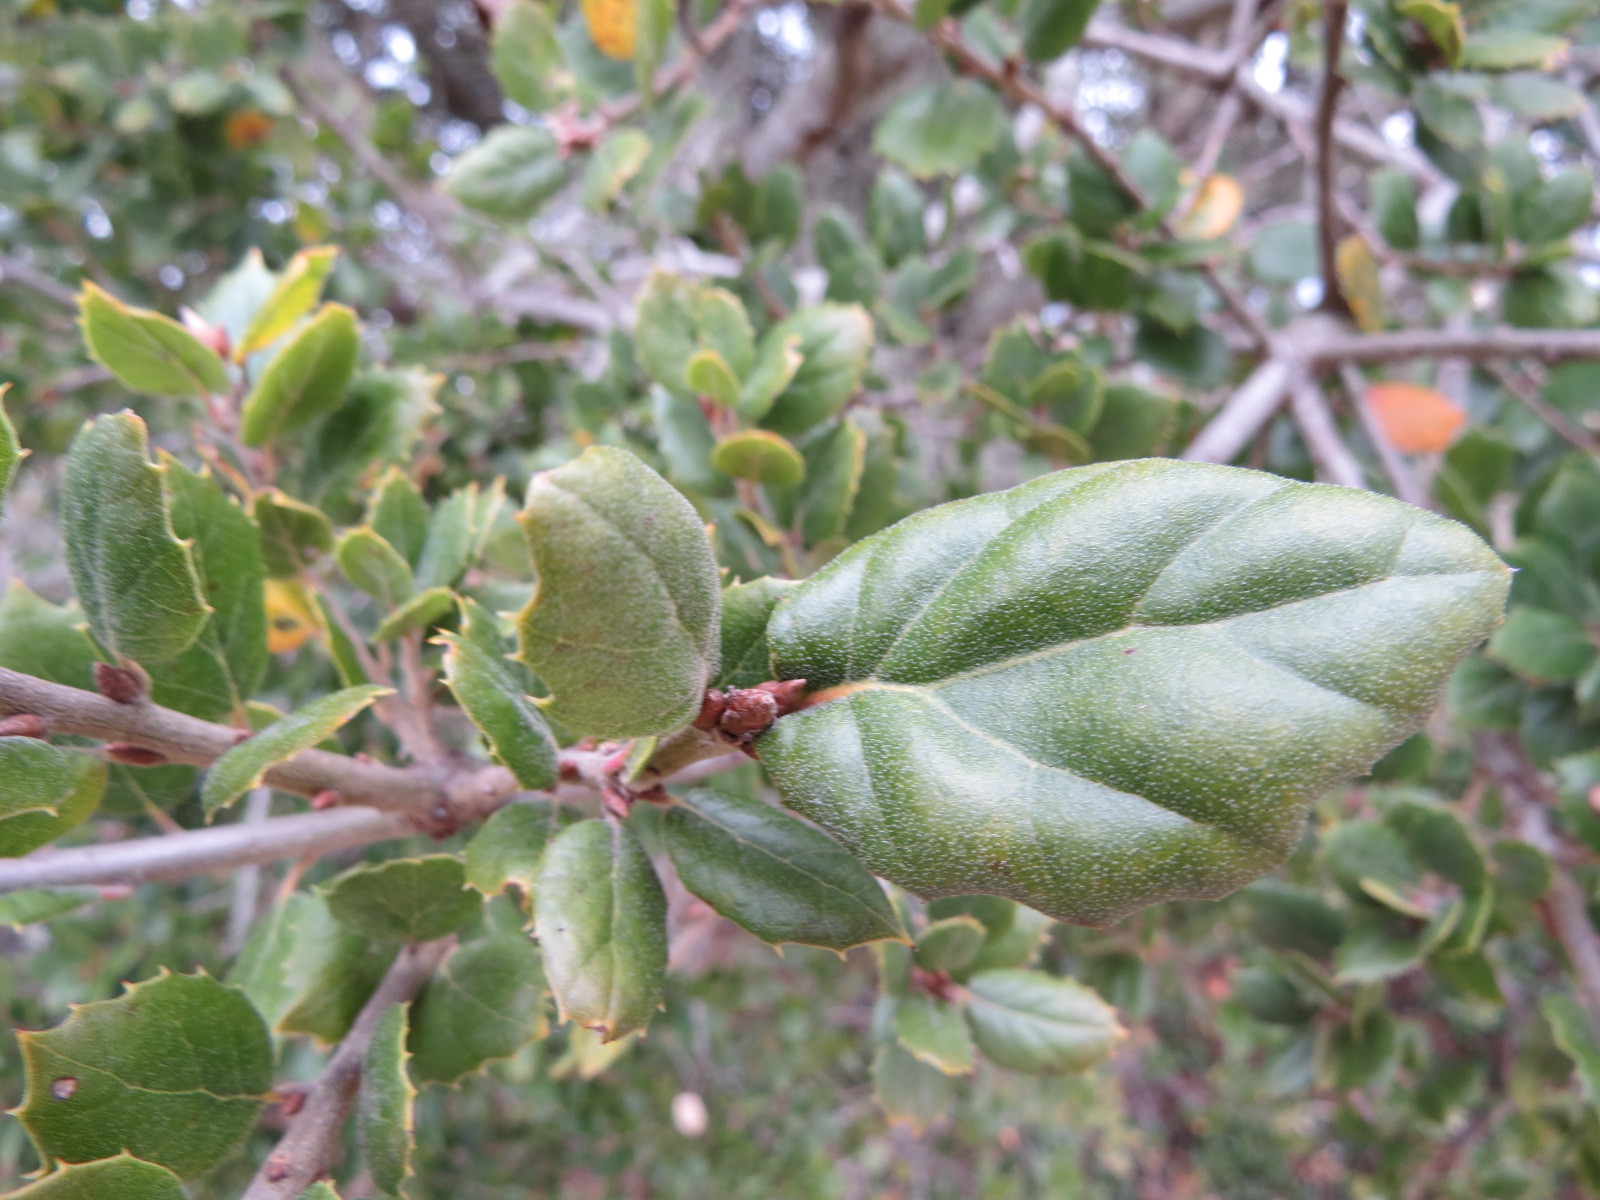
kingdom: Plantae
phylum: Tracheophyta
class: Magnoliopsida
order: Fagales
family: Fagaceae
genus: Quercus
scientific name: Quercus agrifolia
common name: California live oak
